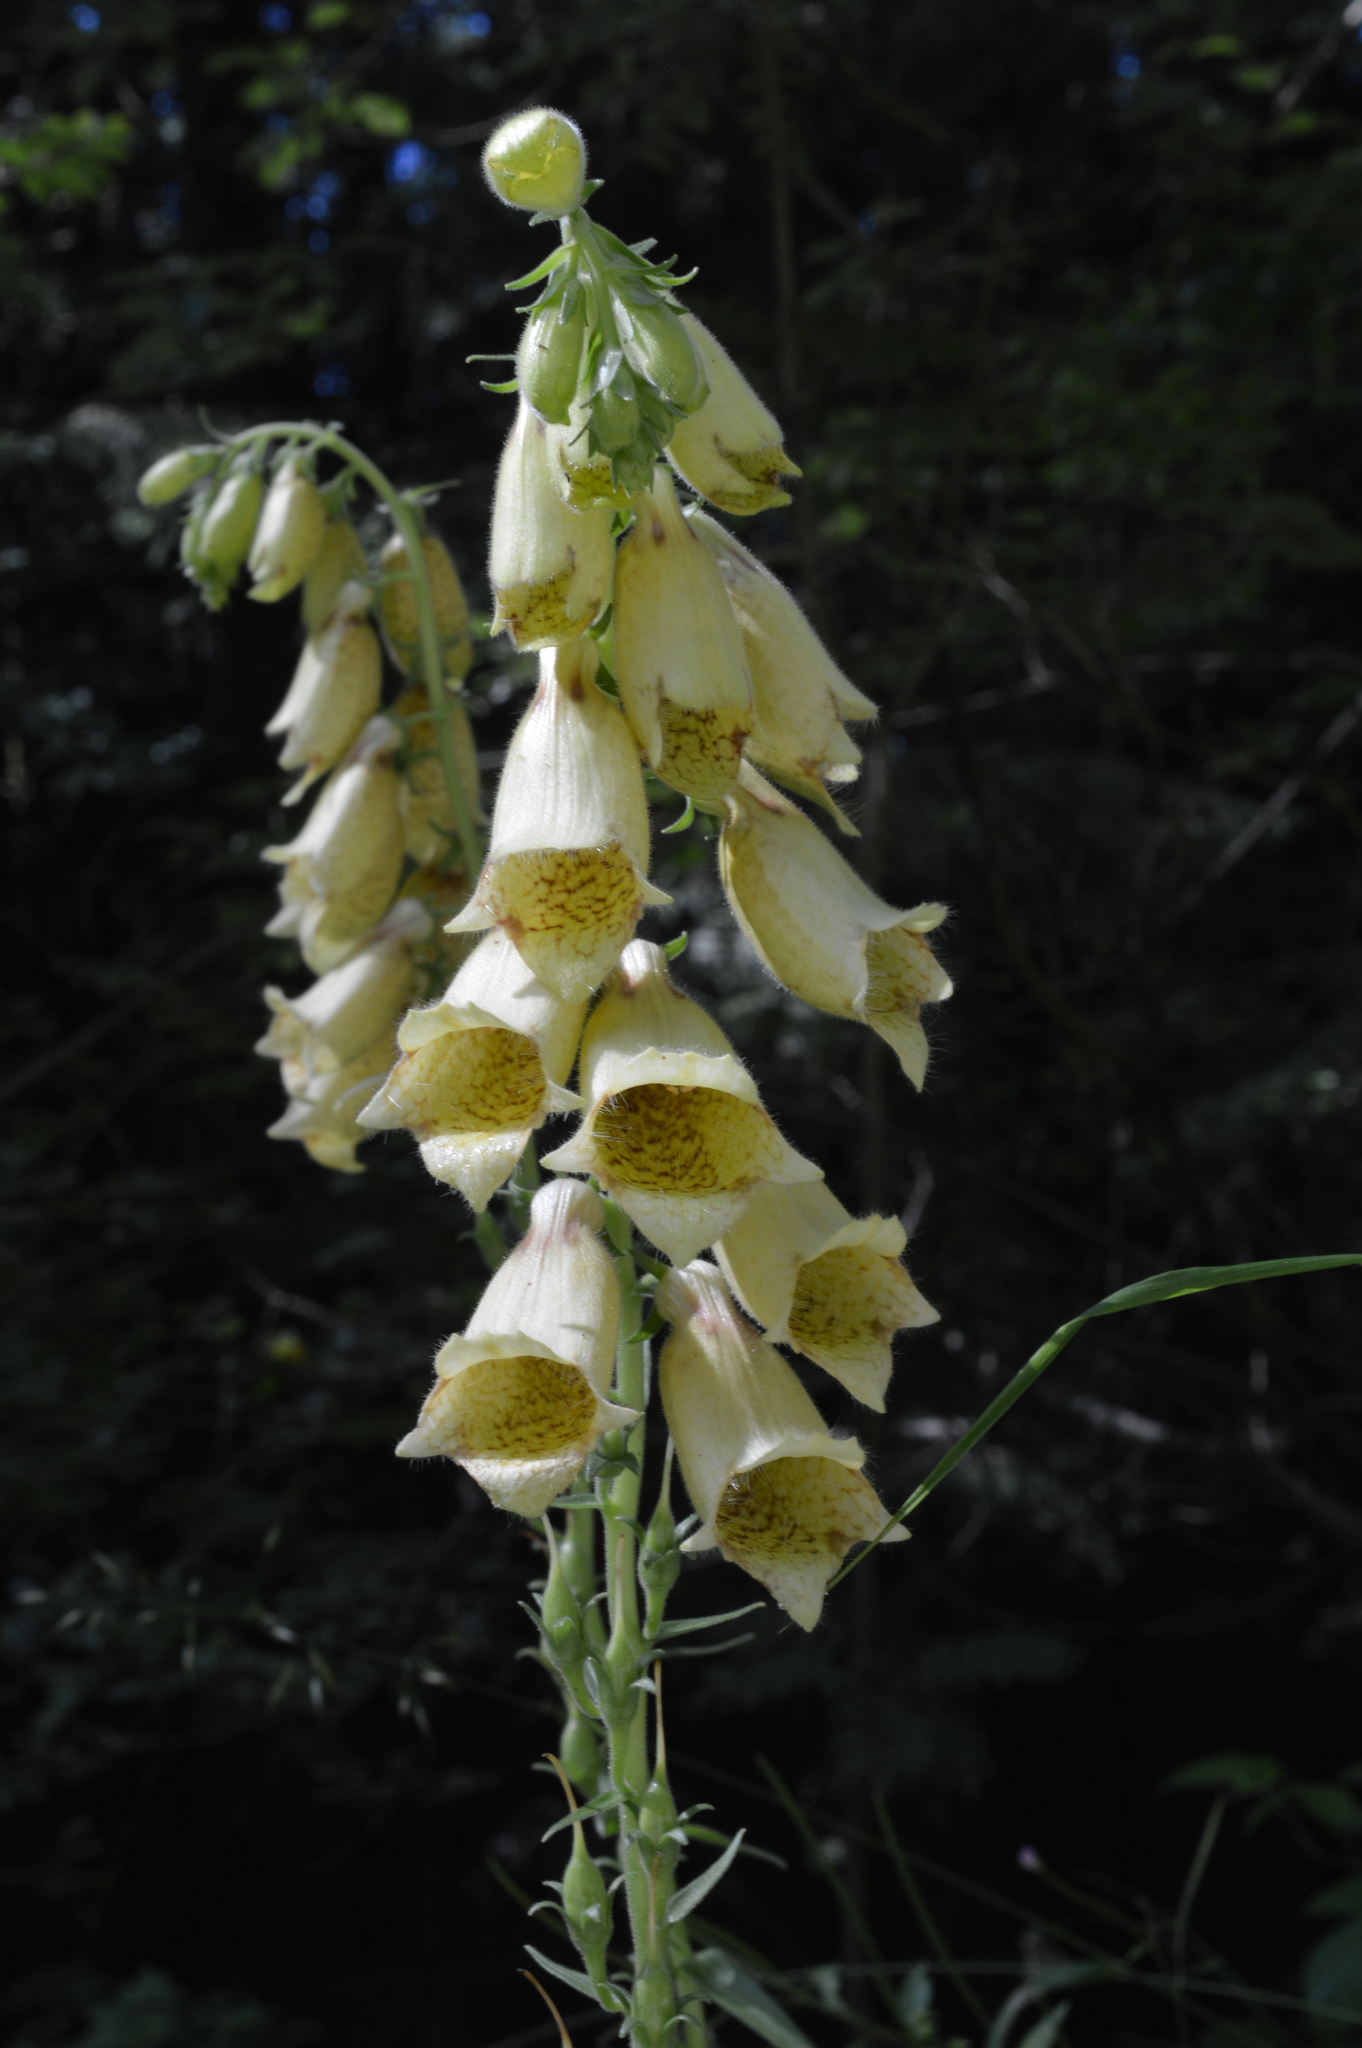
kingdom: Plantae
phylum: Tracheophyta
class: Magnoliopsida
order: Lamiales
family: Plantaginaceae
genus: Digitalis
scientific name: Digitalis grandiflora
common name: Yellow foxglove
